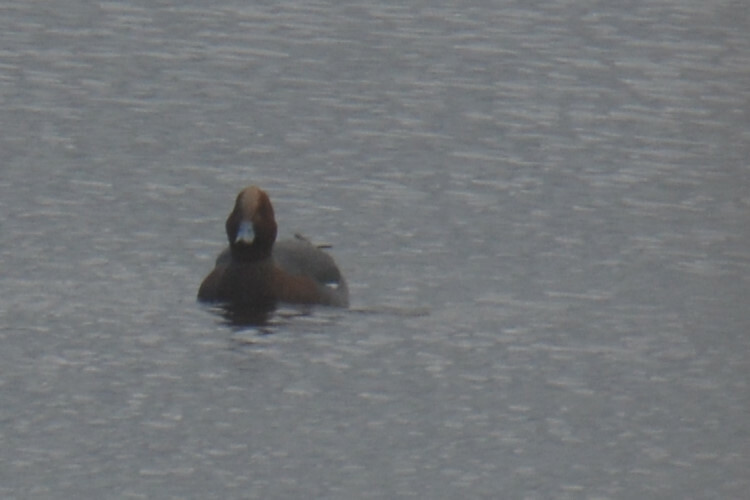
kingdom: Animalia
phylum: Chordata
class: Aves
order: Anseriformes
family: Anatidae
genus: Mareca
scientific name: Mareca penelope
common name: Eurasian wigeon
